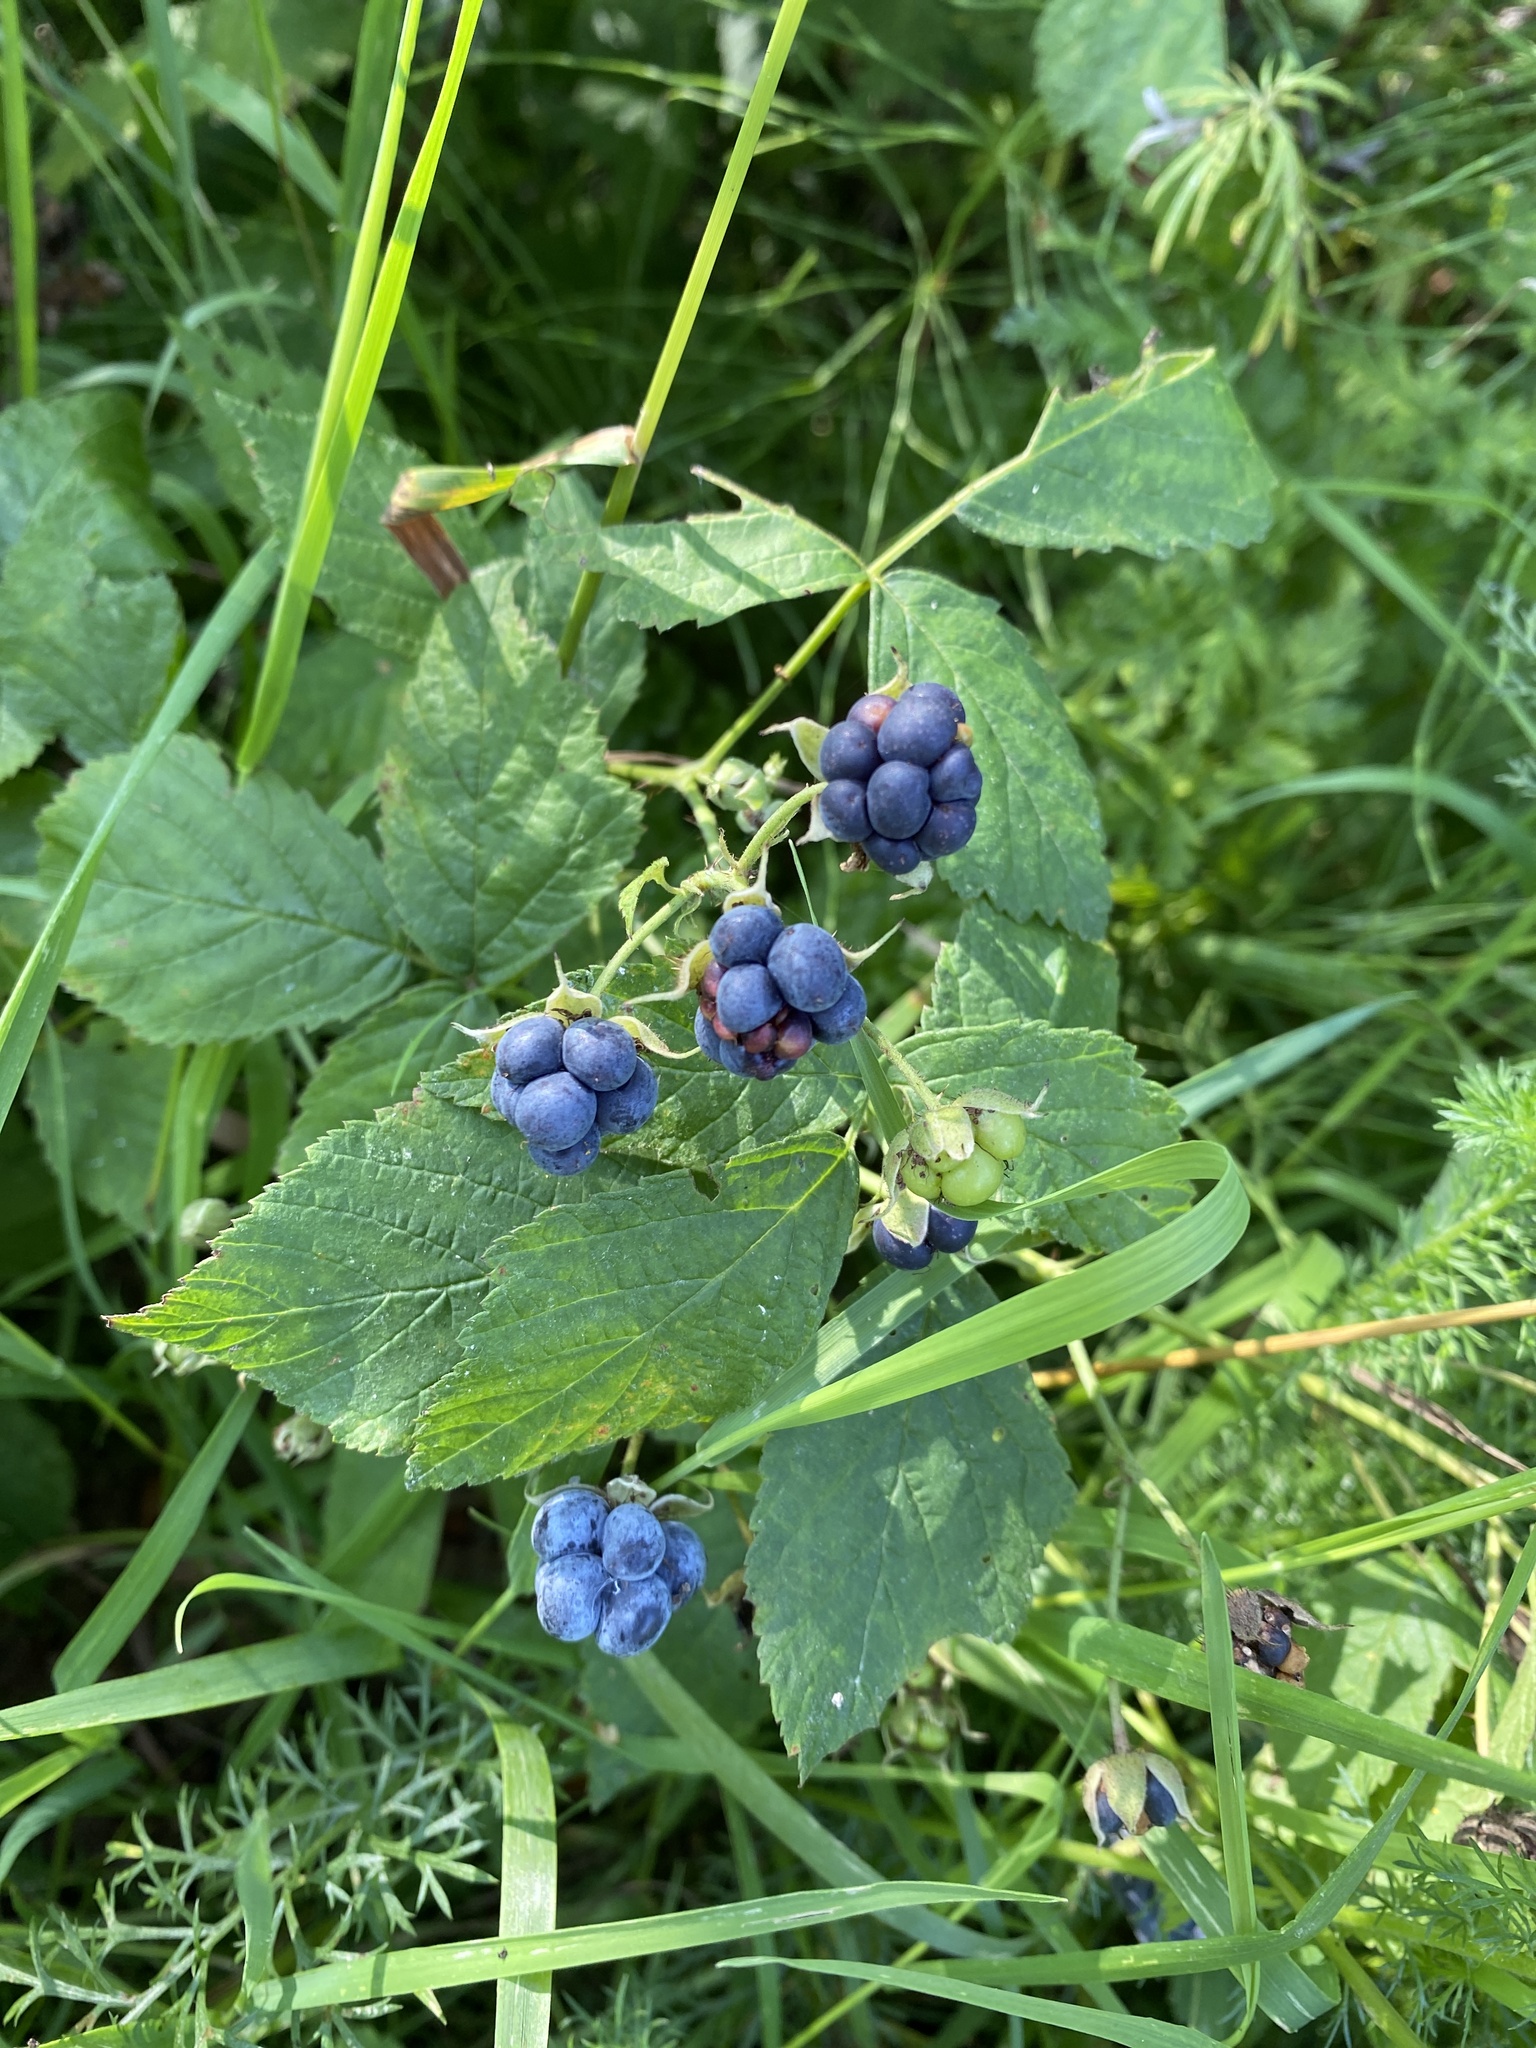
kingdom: Plantae
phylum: Tracheophyta
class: Magnoliopsida
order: Rosales
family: Rosaceae
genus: Rubus
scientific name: Rubus caesius
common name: Dewberry
